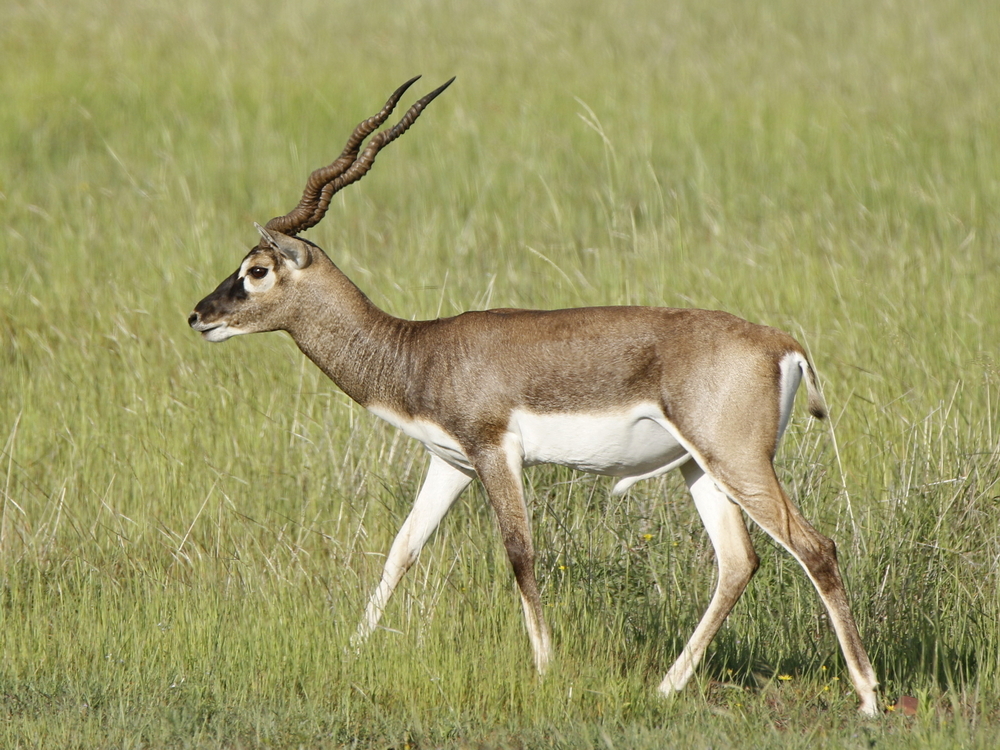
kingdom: Animalia
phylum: Chordata
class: Mammalia
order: Artiodactyla
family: Bovidae
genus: Antilope
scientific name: Antilope cervicapra
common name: Blackbuck
